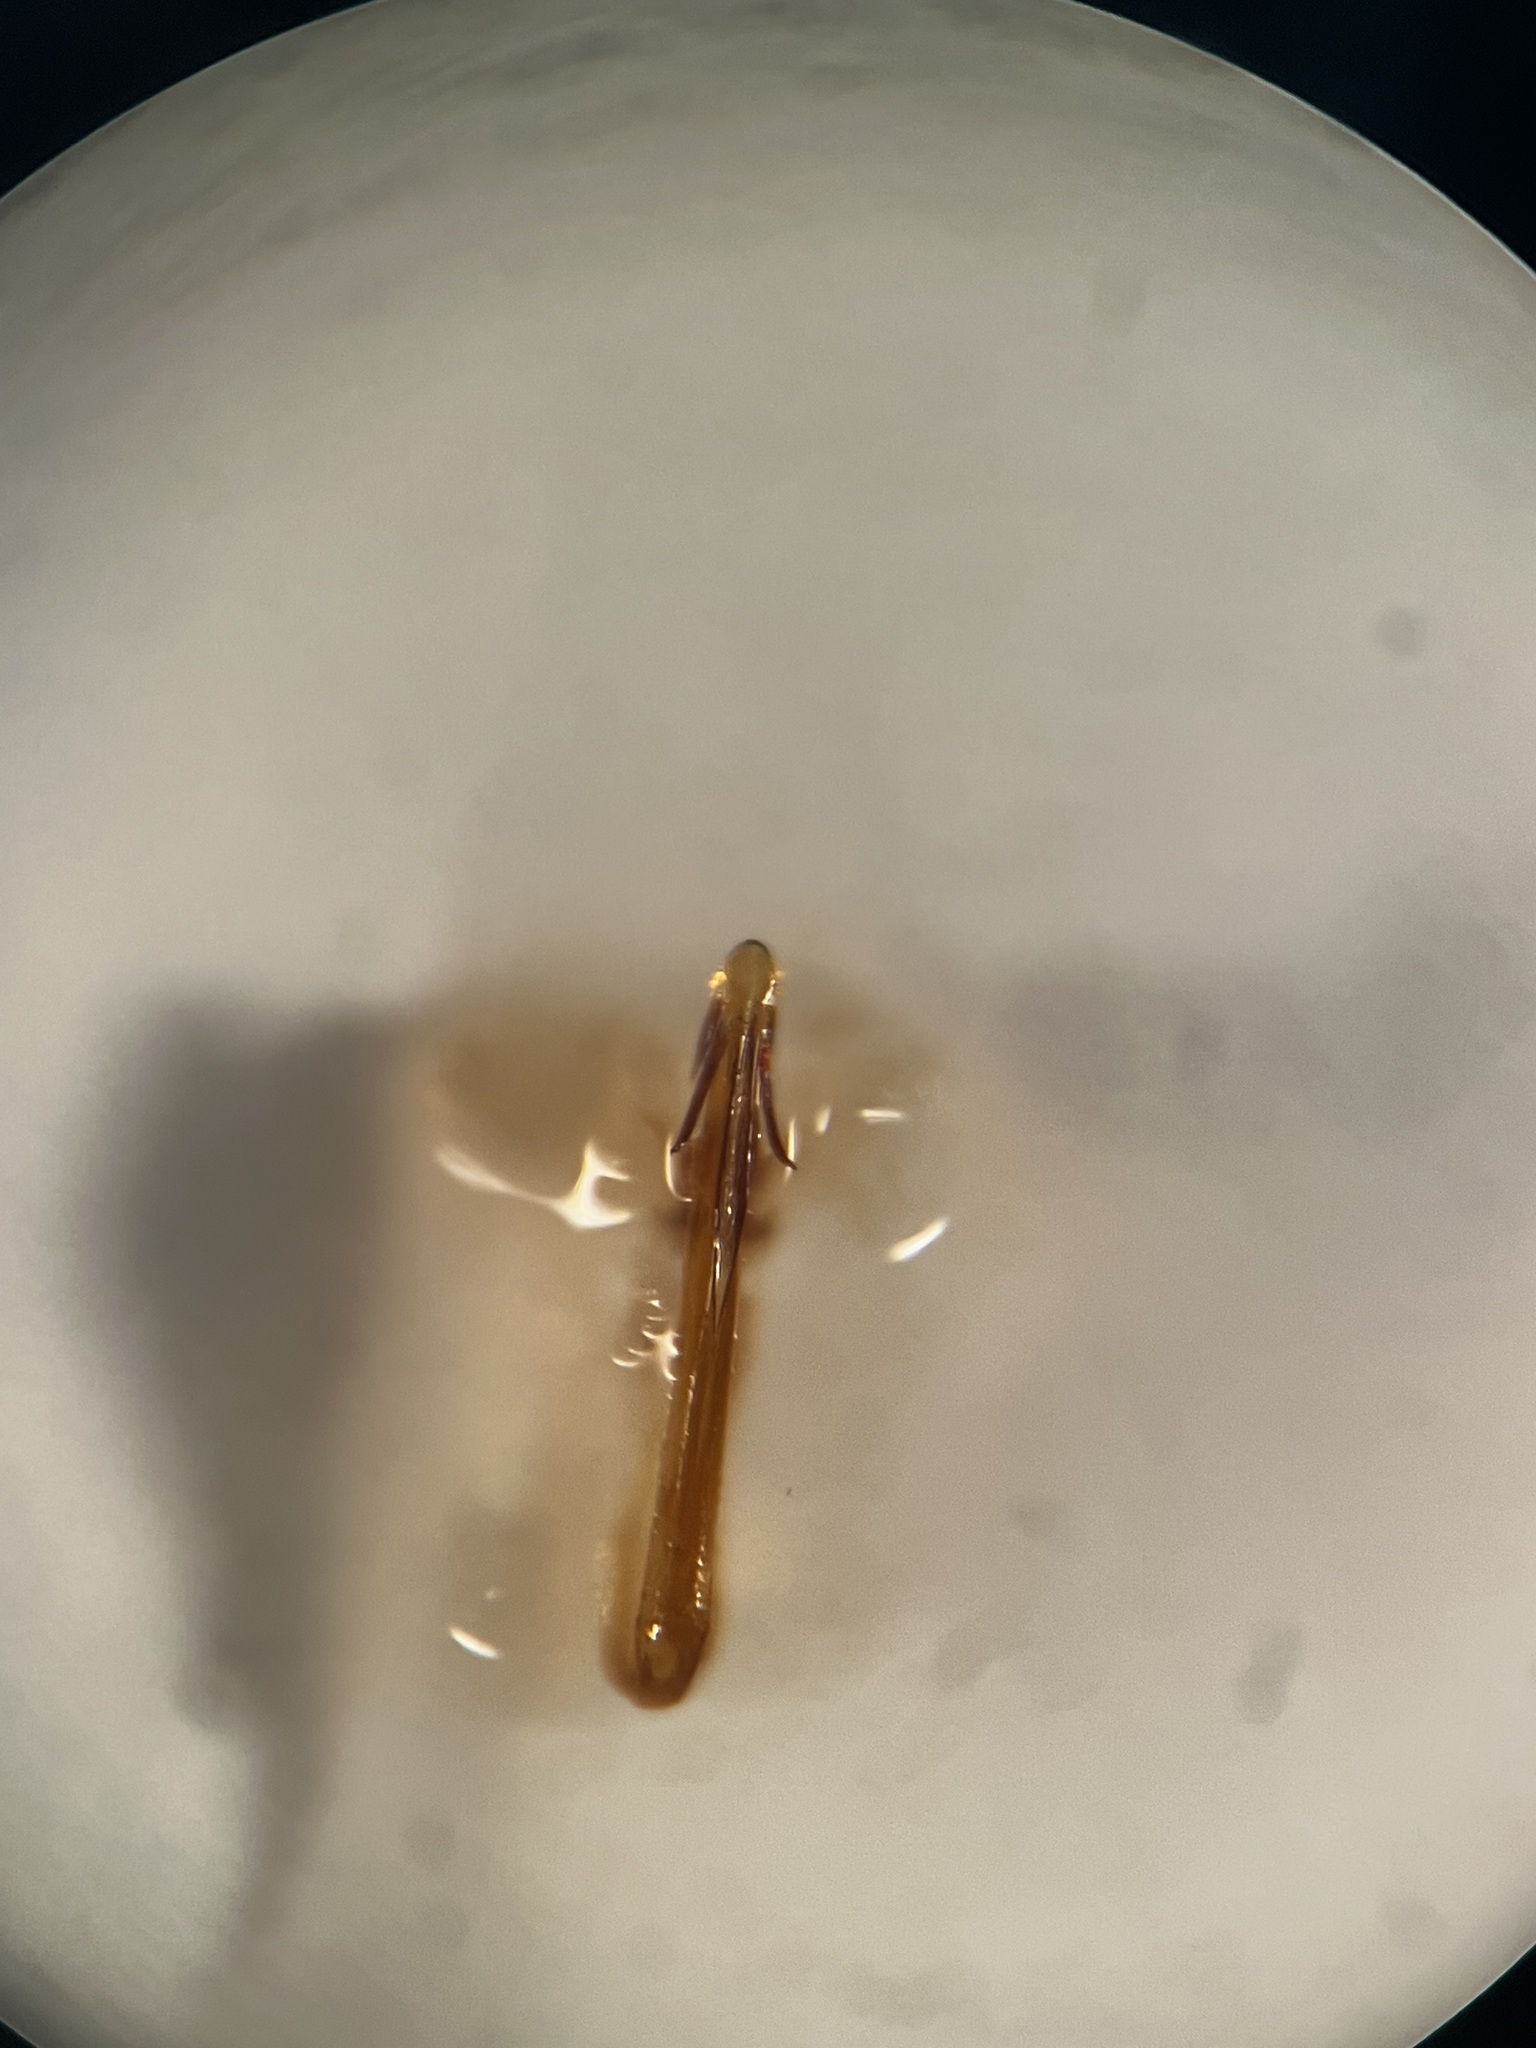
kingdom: Animalia
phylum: Arthropoda
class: Insecta
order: Hemiptera
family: Cicadellidae
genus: Anoscopus
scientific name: Anoscopus serratulae
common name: Leafhopper
